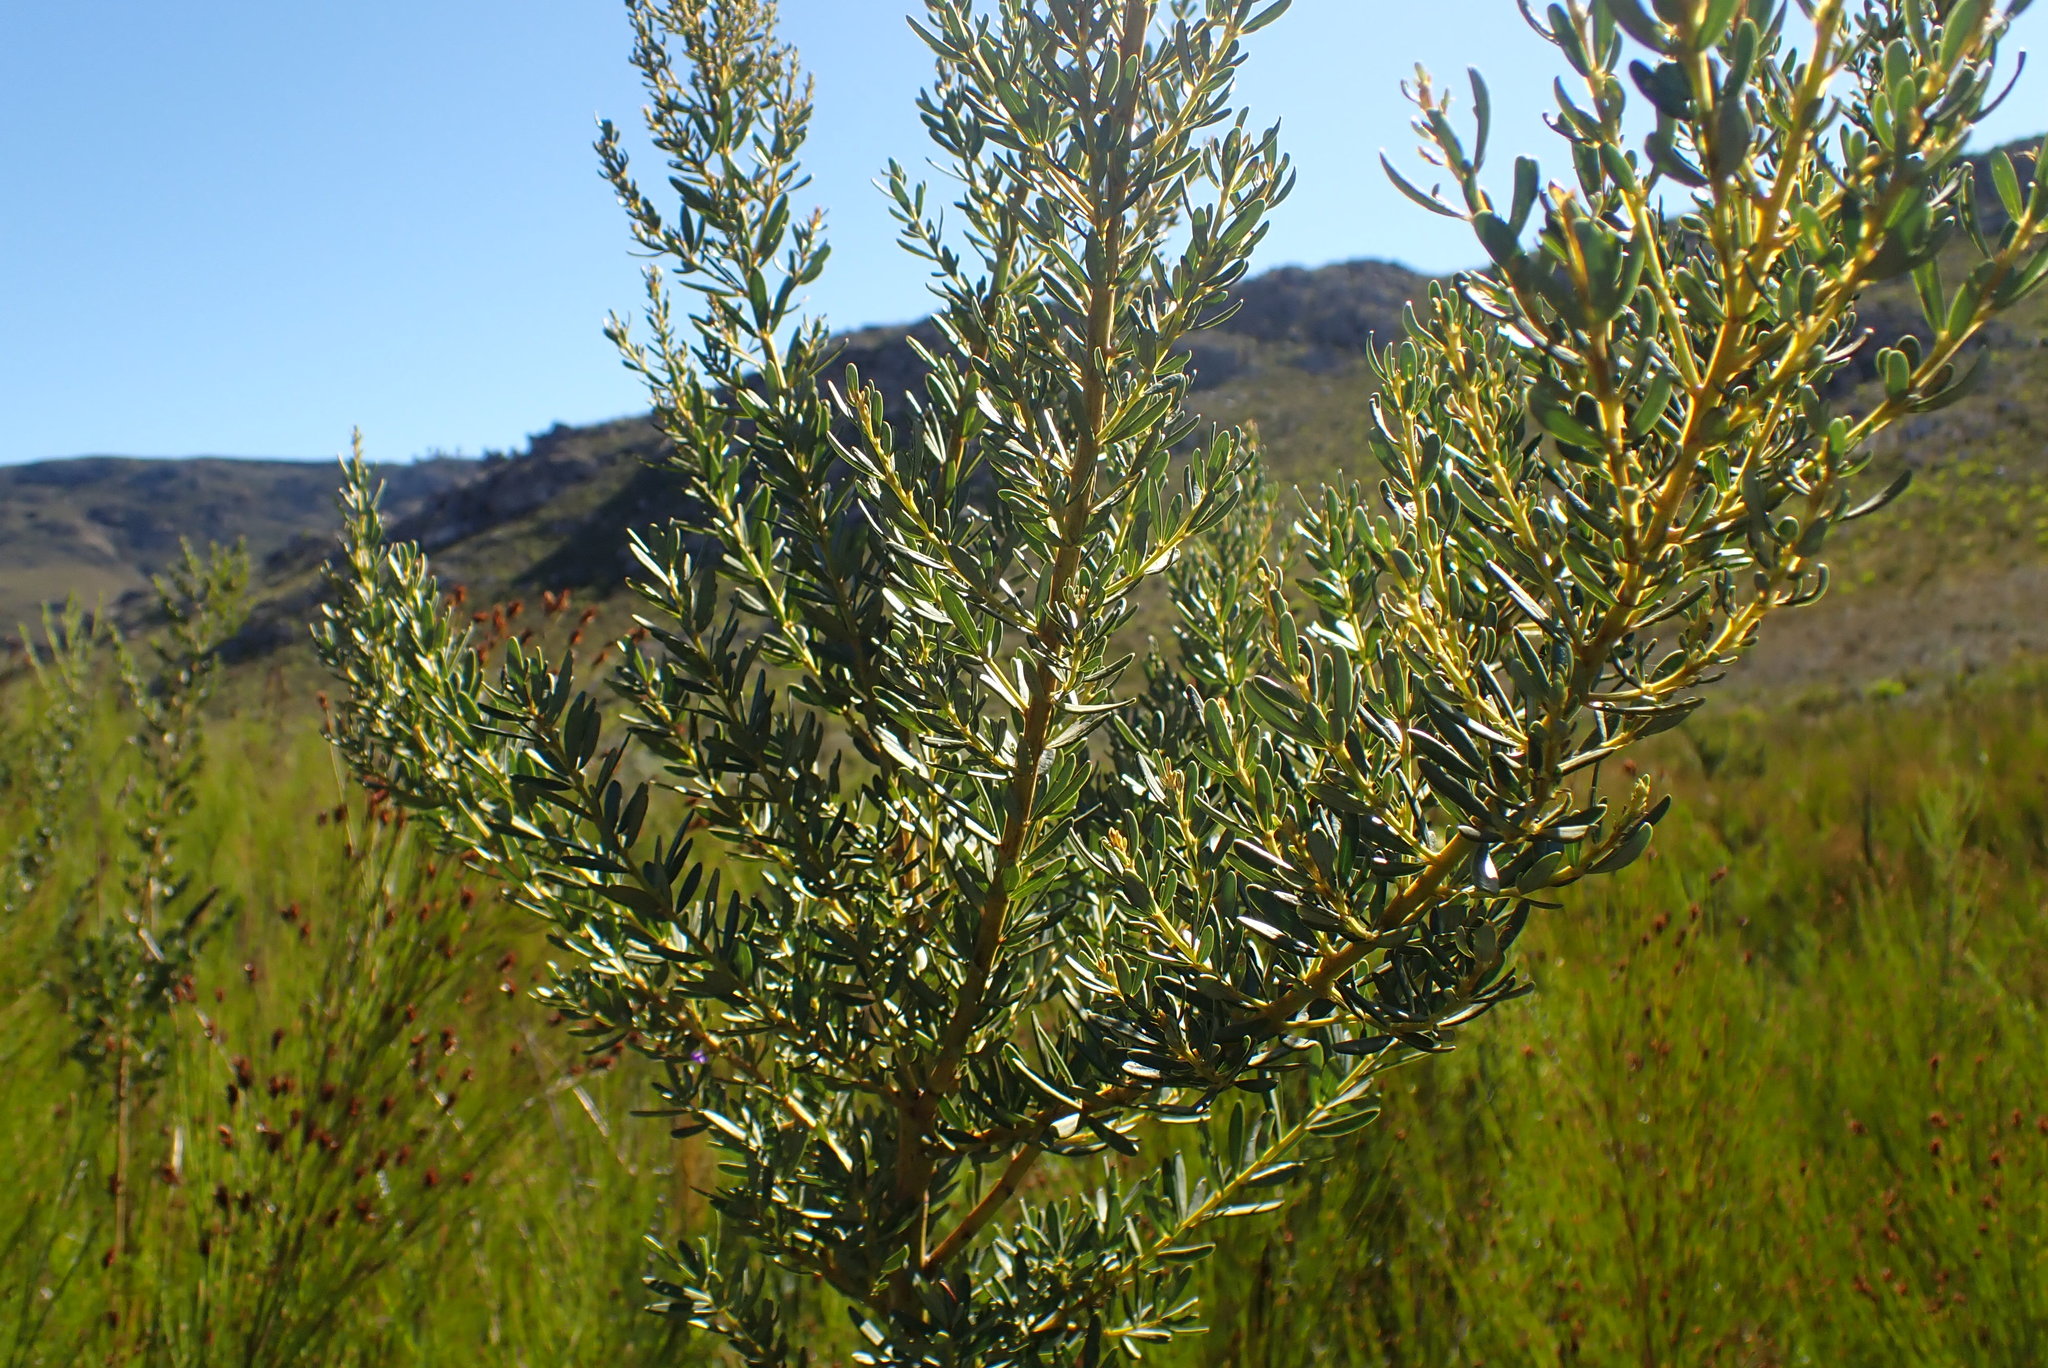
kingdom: Plantae
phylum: Tracheophyta
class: Magnoliopsida
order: Fabales
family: Fabaceae
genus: Cyclopia
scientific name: Cyclopia subternata
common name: Honeybush tea
